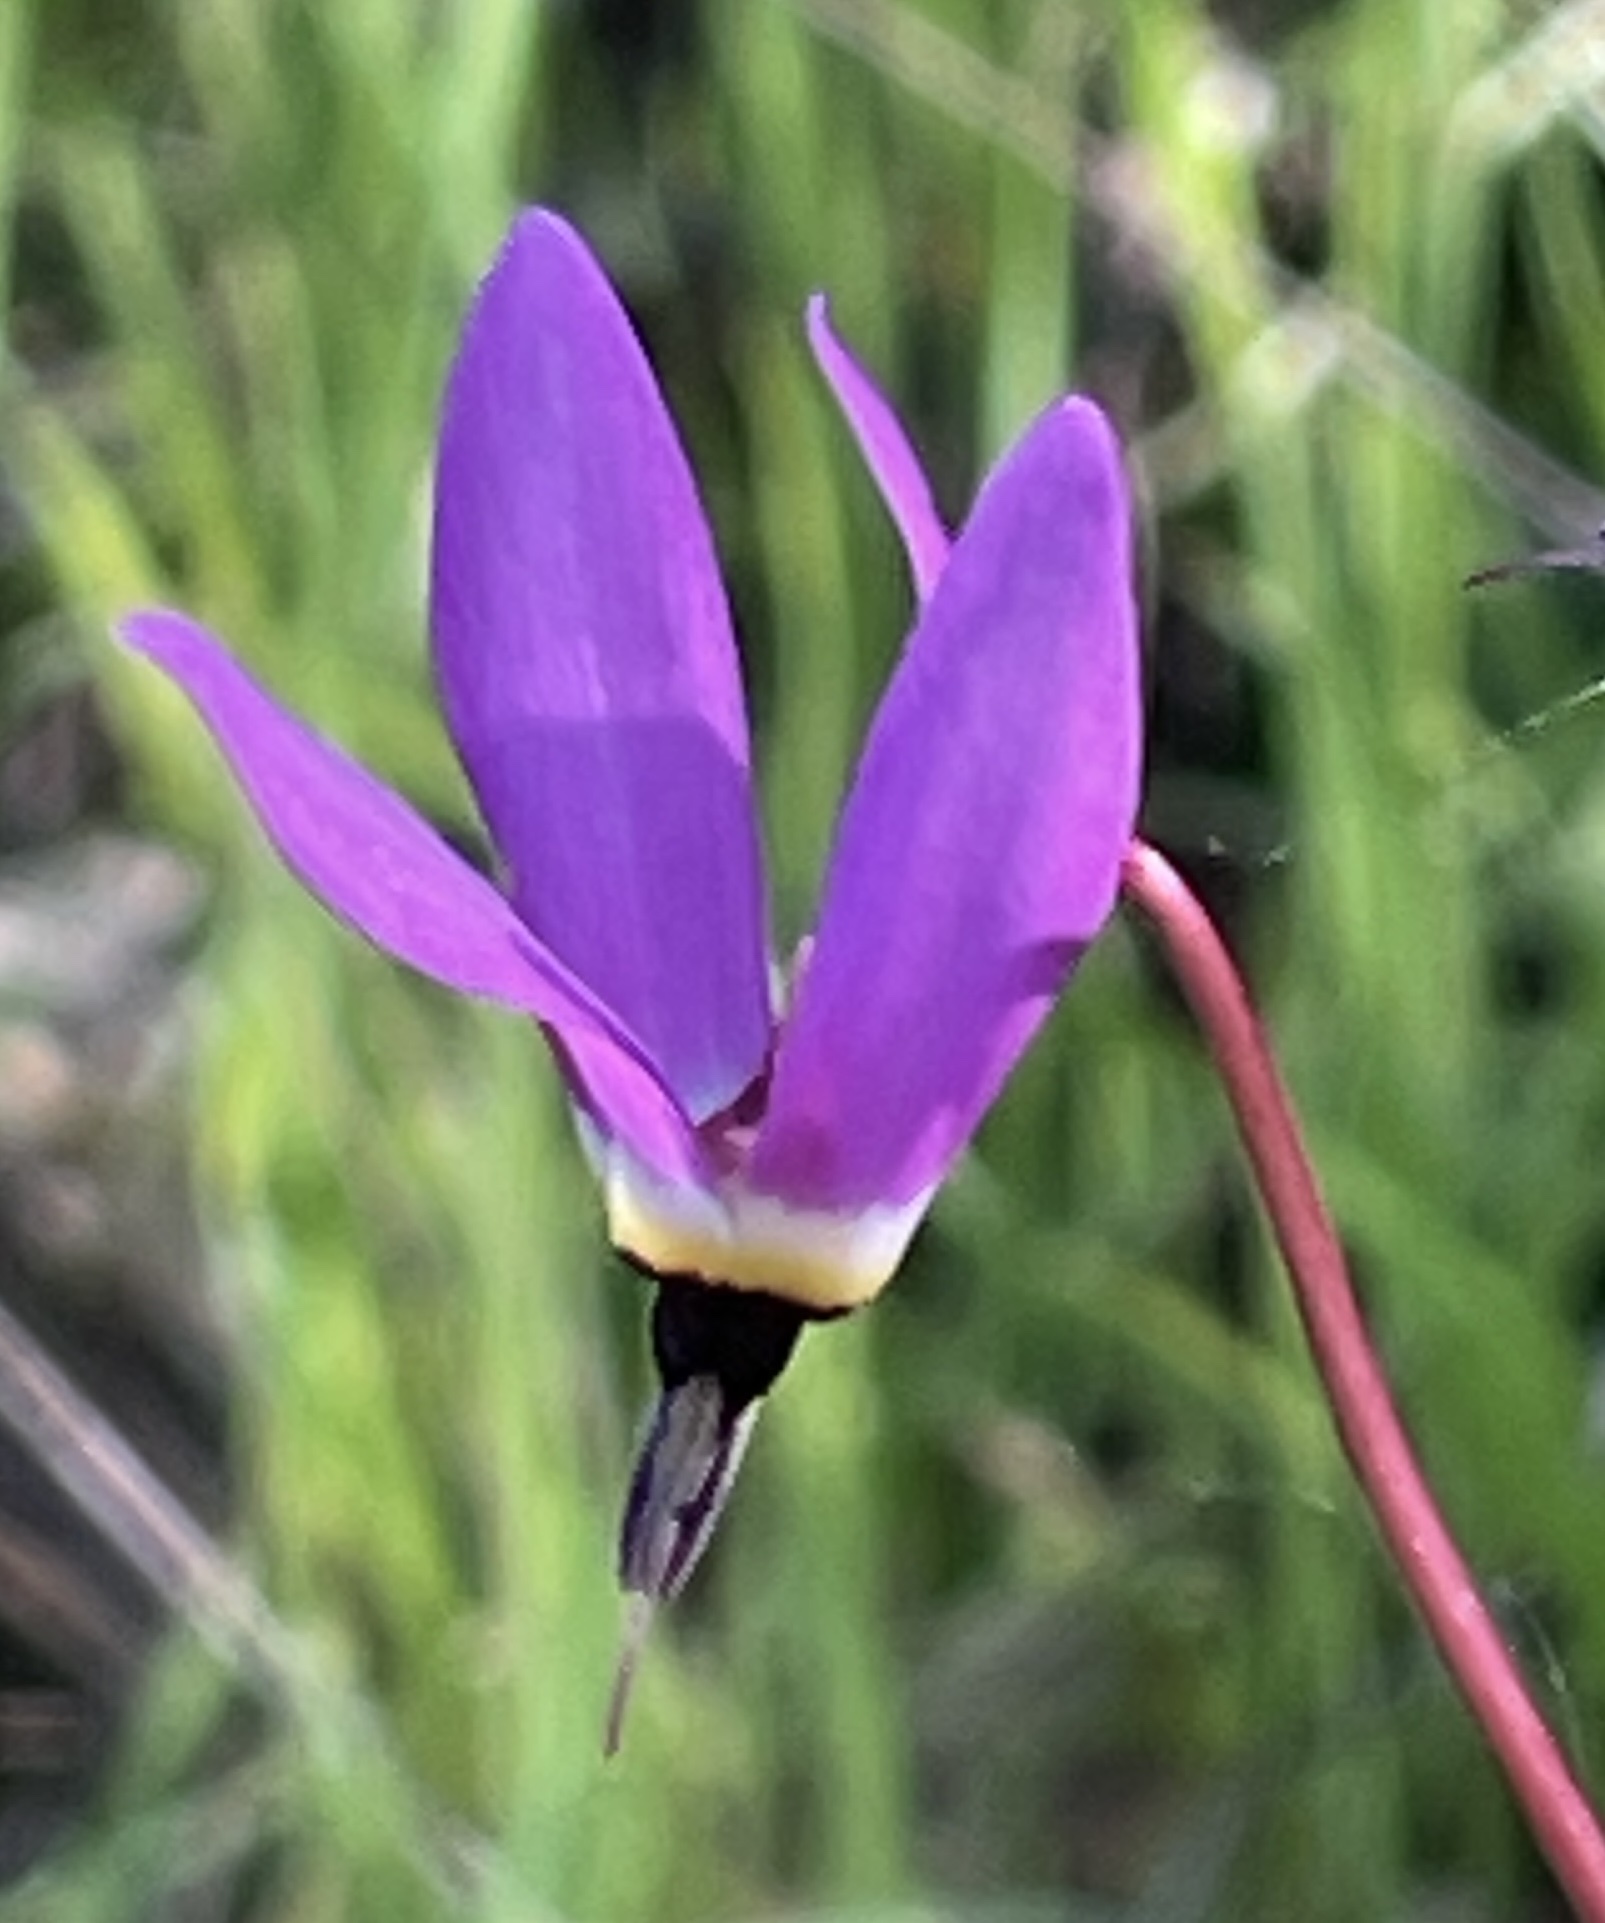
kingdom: Plantae
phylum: Tracheophyta
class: Magnoliopsida
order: Ericales
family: Primulaceae
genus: Dodecatheon
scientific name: Dodecatheon hendersonii
